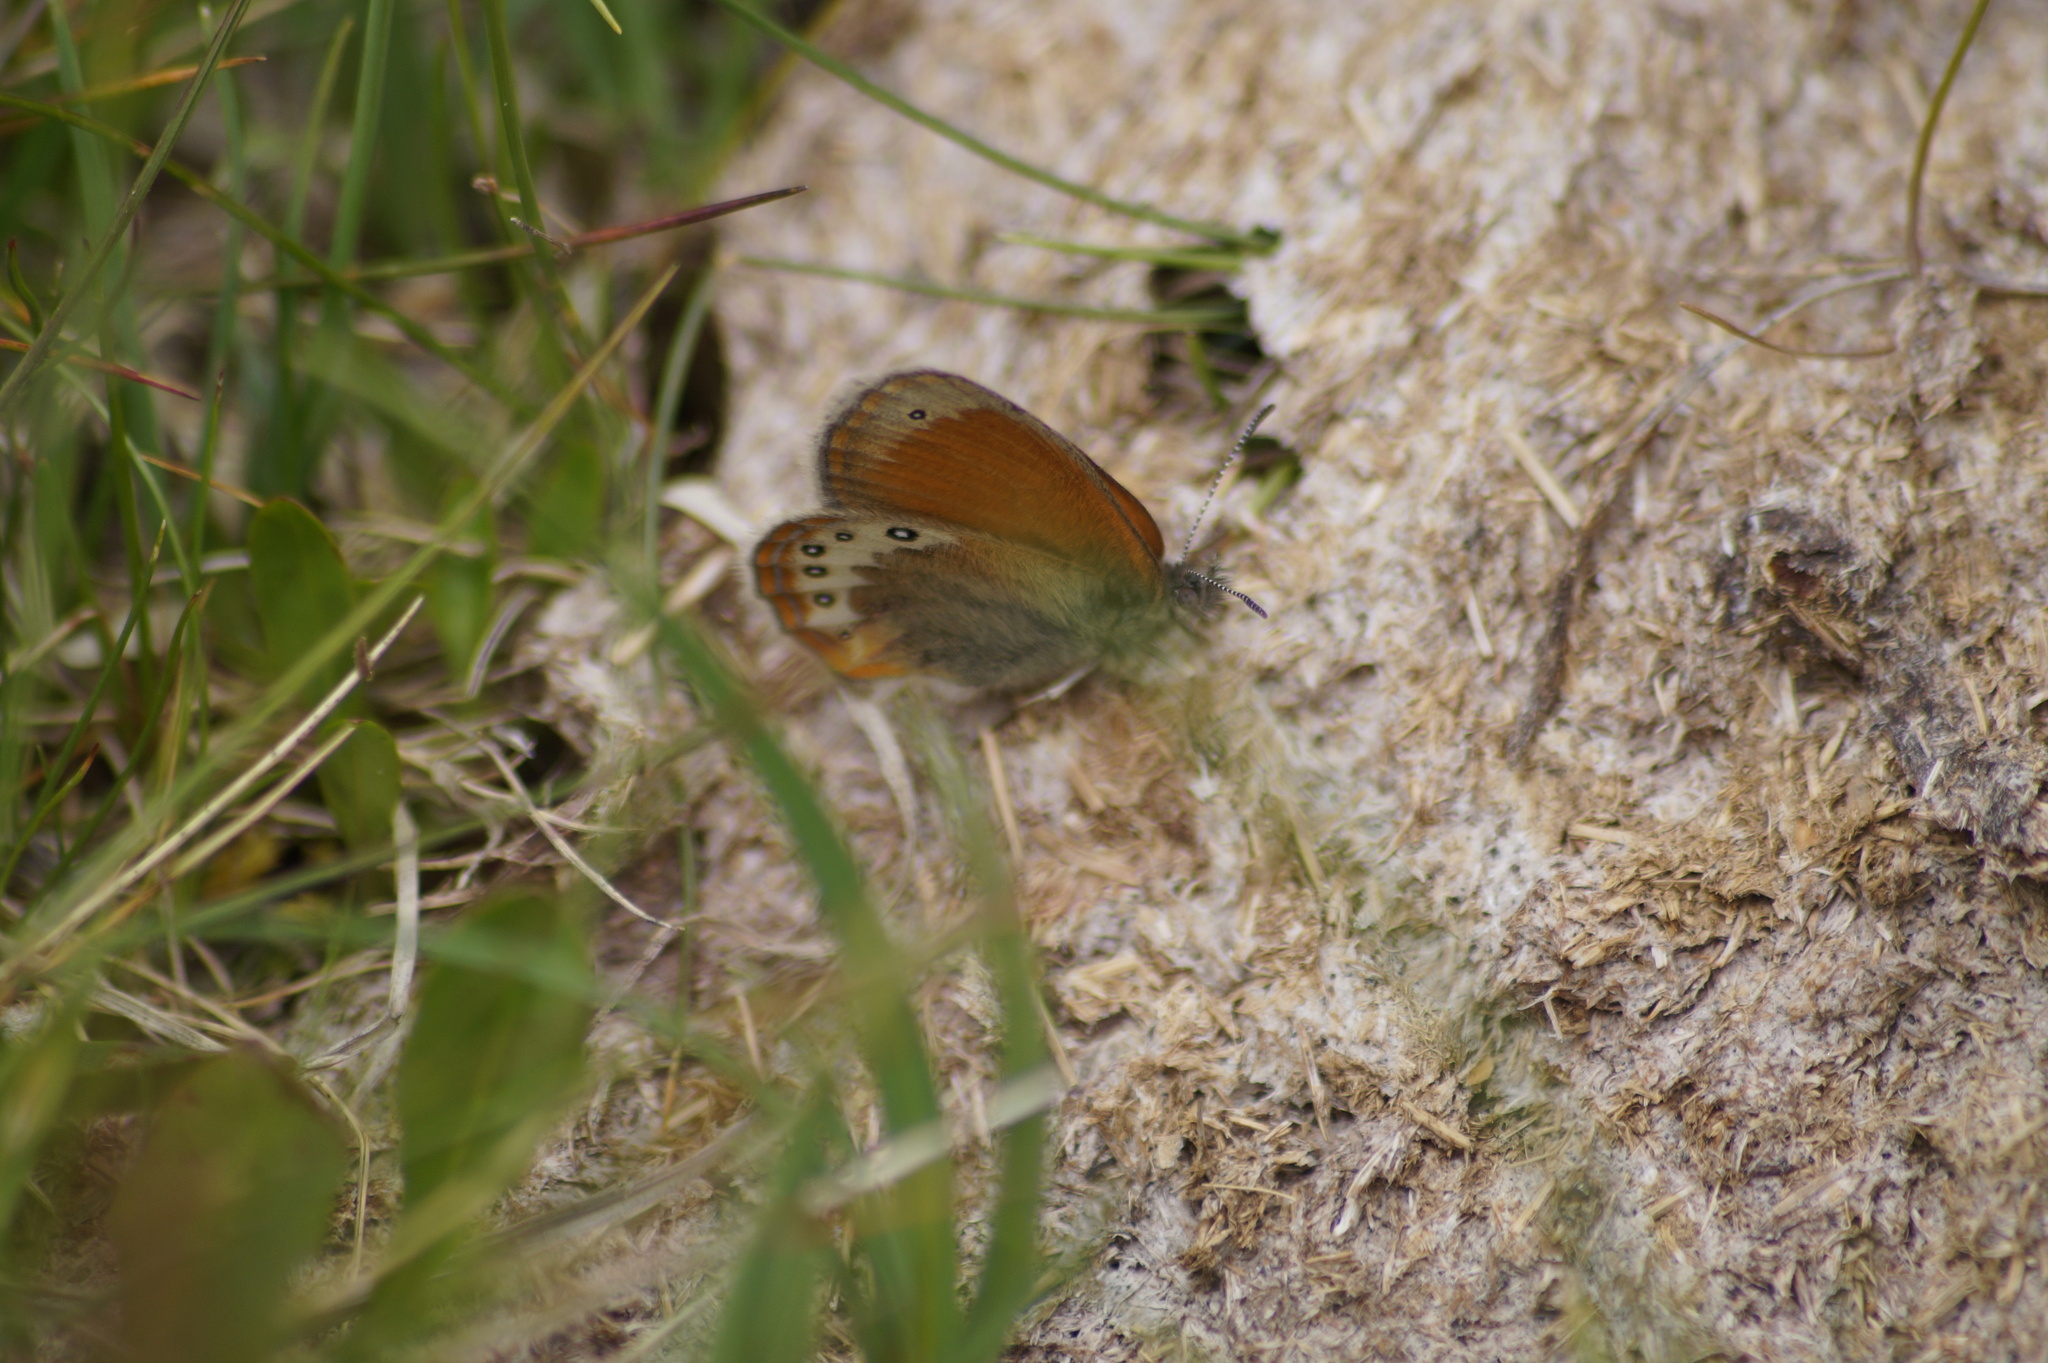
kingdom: Animalia
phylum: Arthropoda
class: Insecta
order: Lepidoptera
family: Nymphalidae
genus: Coenonympha
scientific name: Coenonympha
